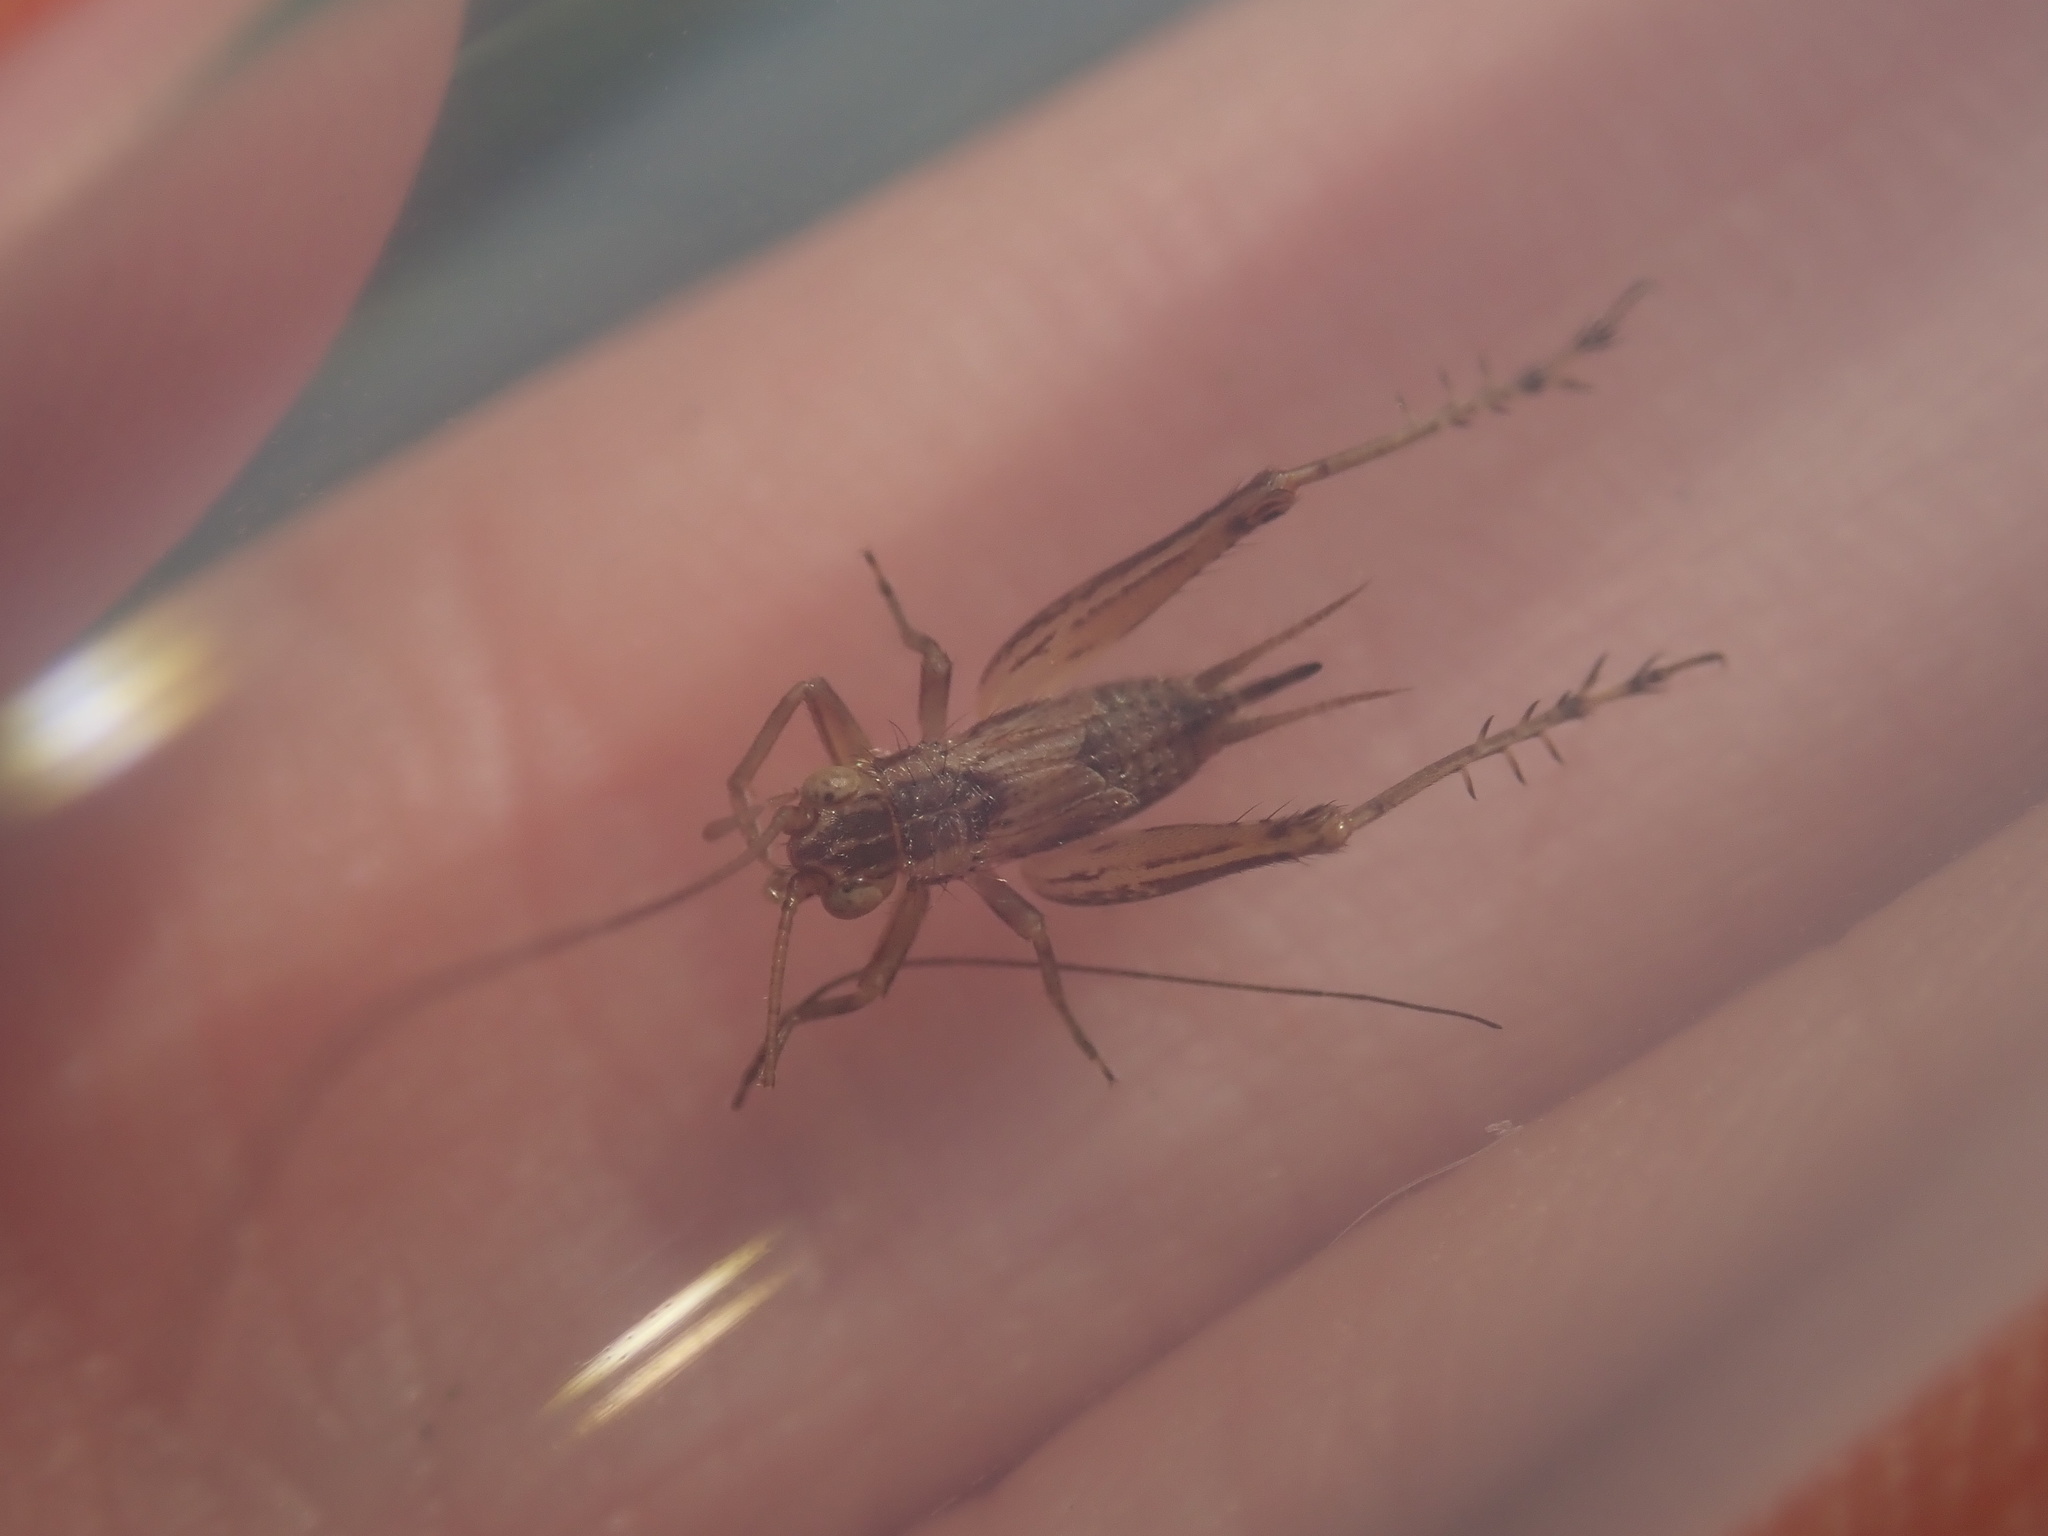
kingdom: Animalia
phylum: Arthropoda
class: Insecta
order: Orthoptera
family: Trigonidiidae
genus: Metioche
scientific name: Metioche maorica
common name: New zealand trig
